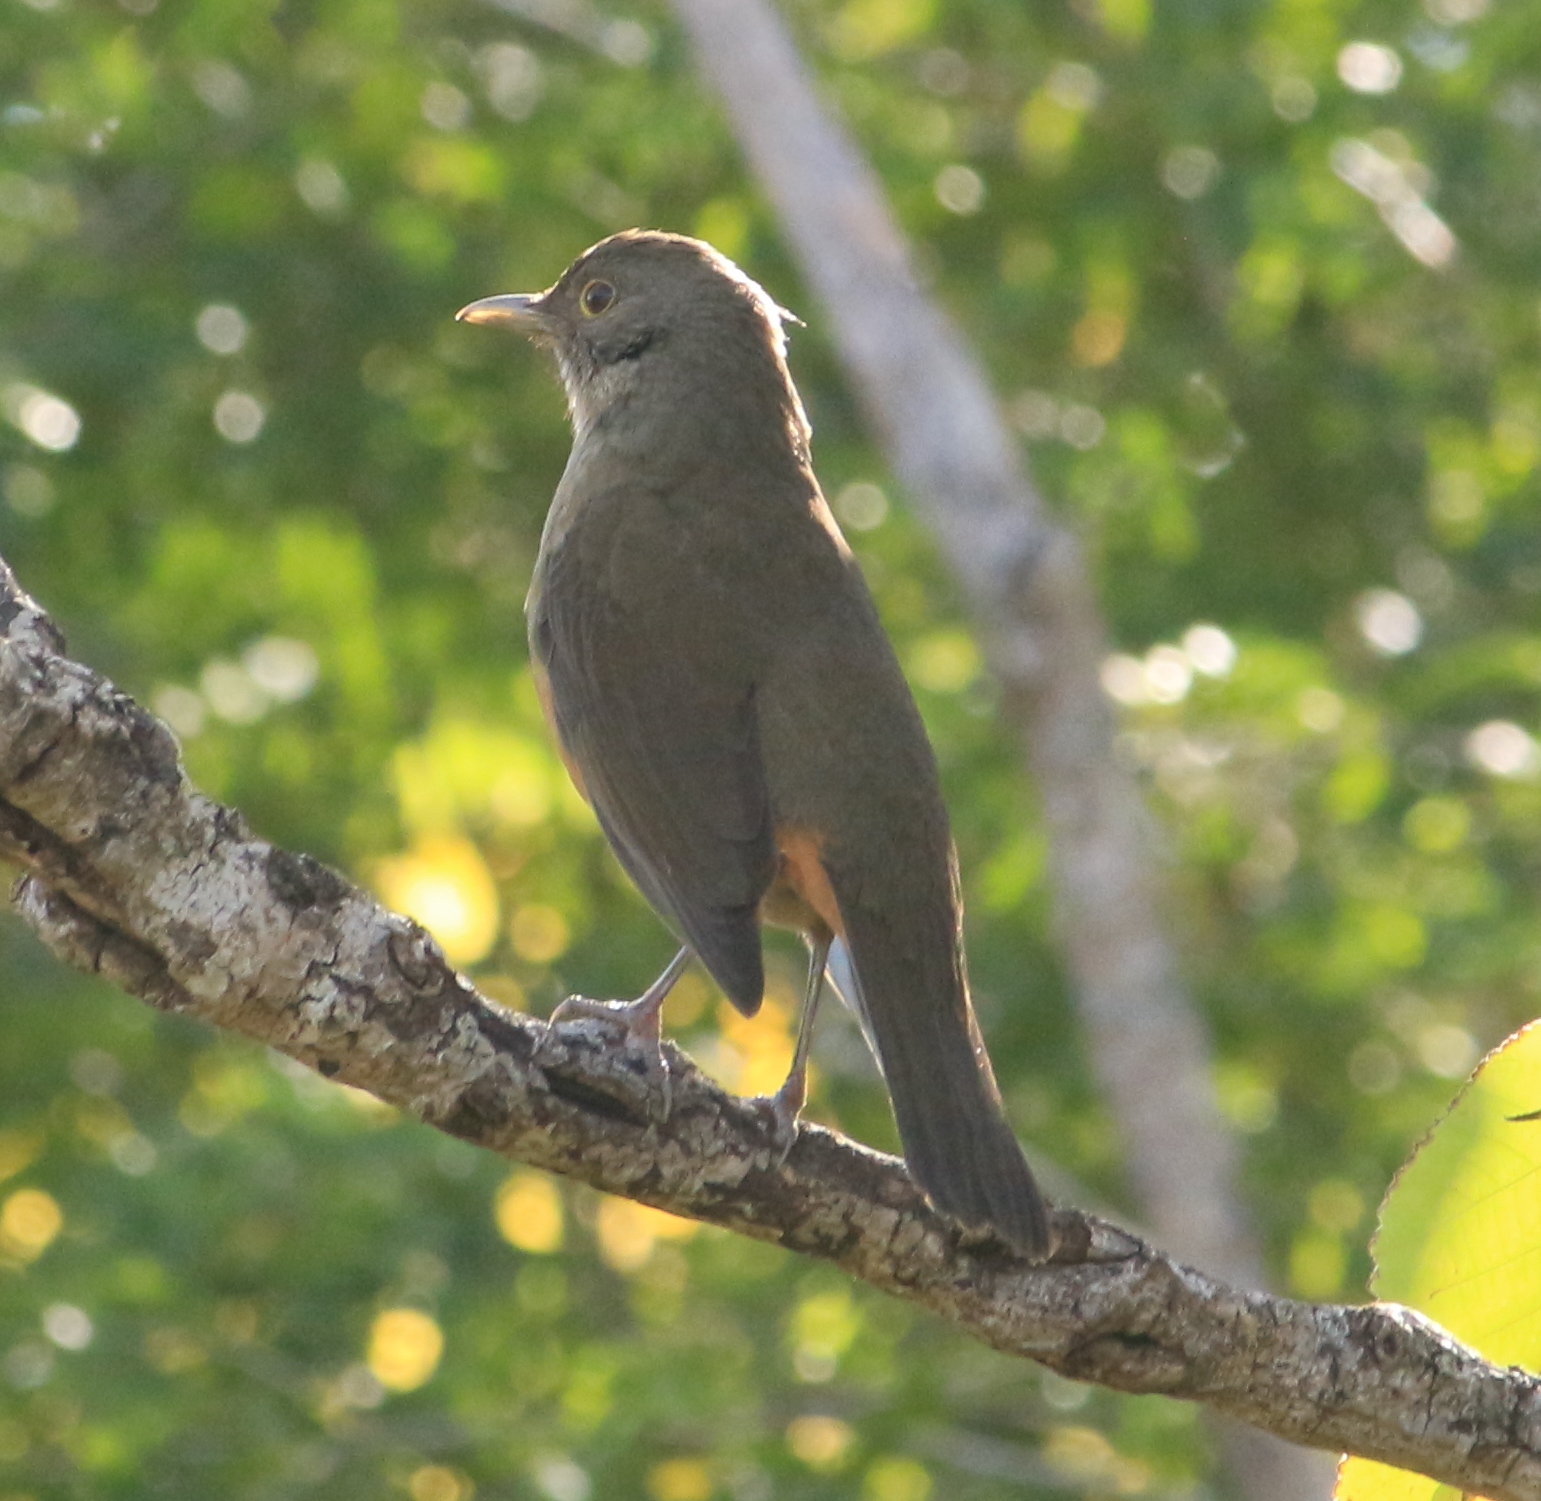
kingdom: Animalia
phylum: Chordata
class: Aves
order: Passeriformes
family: Turdidae
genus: Turdus
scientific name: Turdus rufiventris
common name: Rufous-bellied thrush
